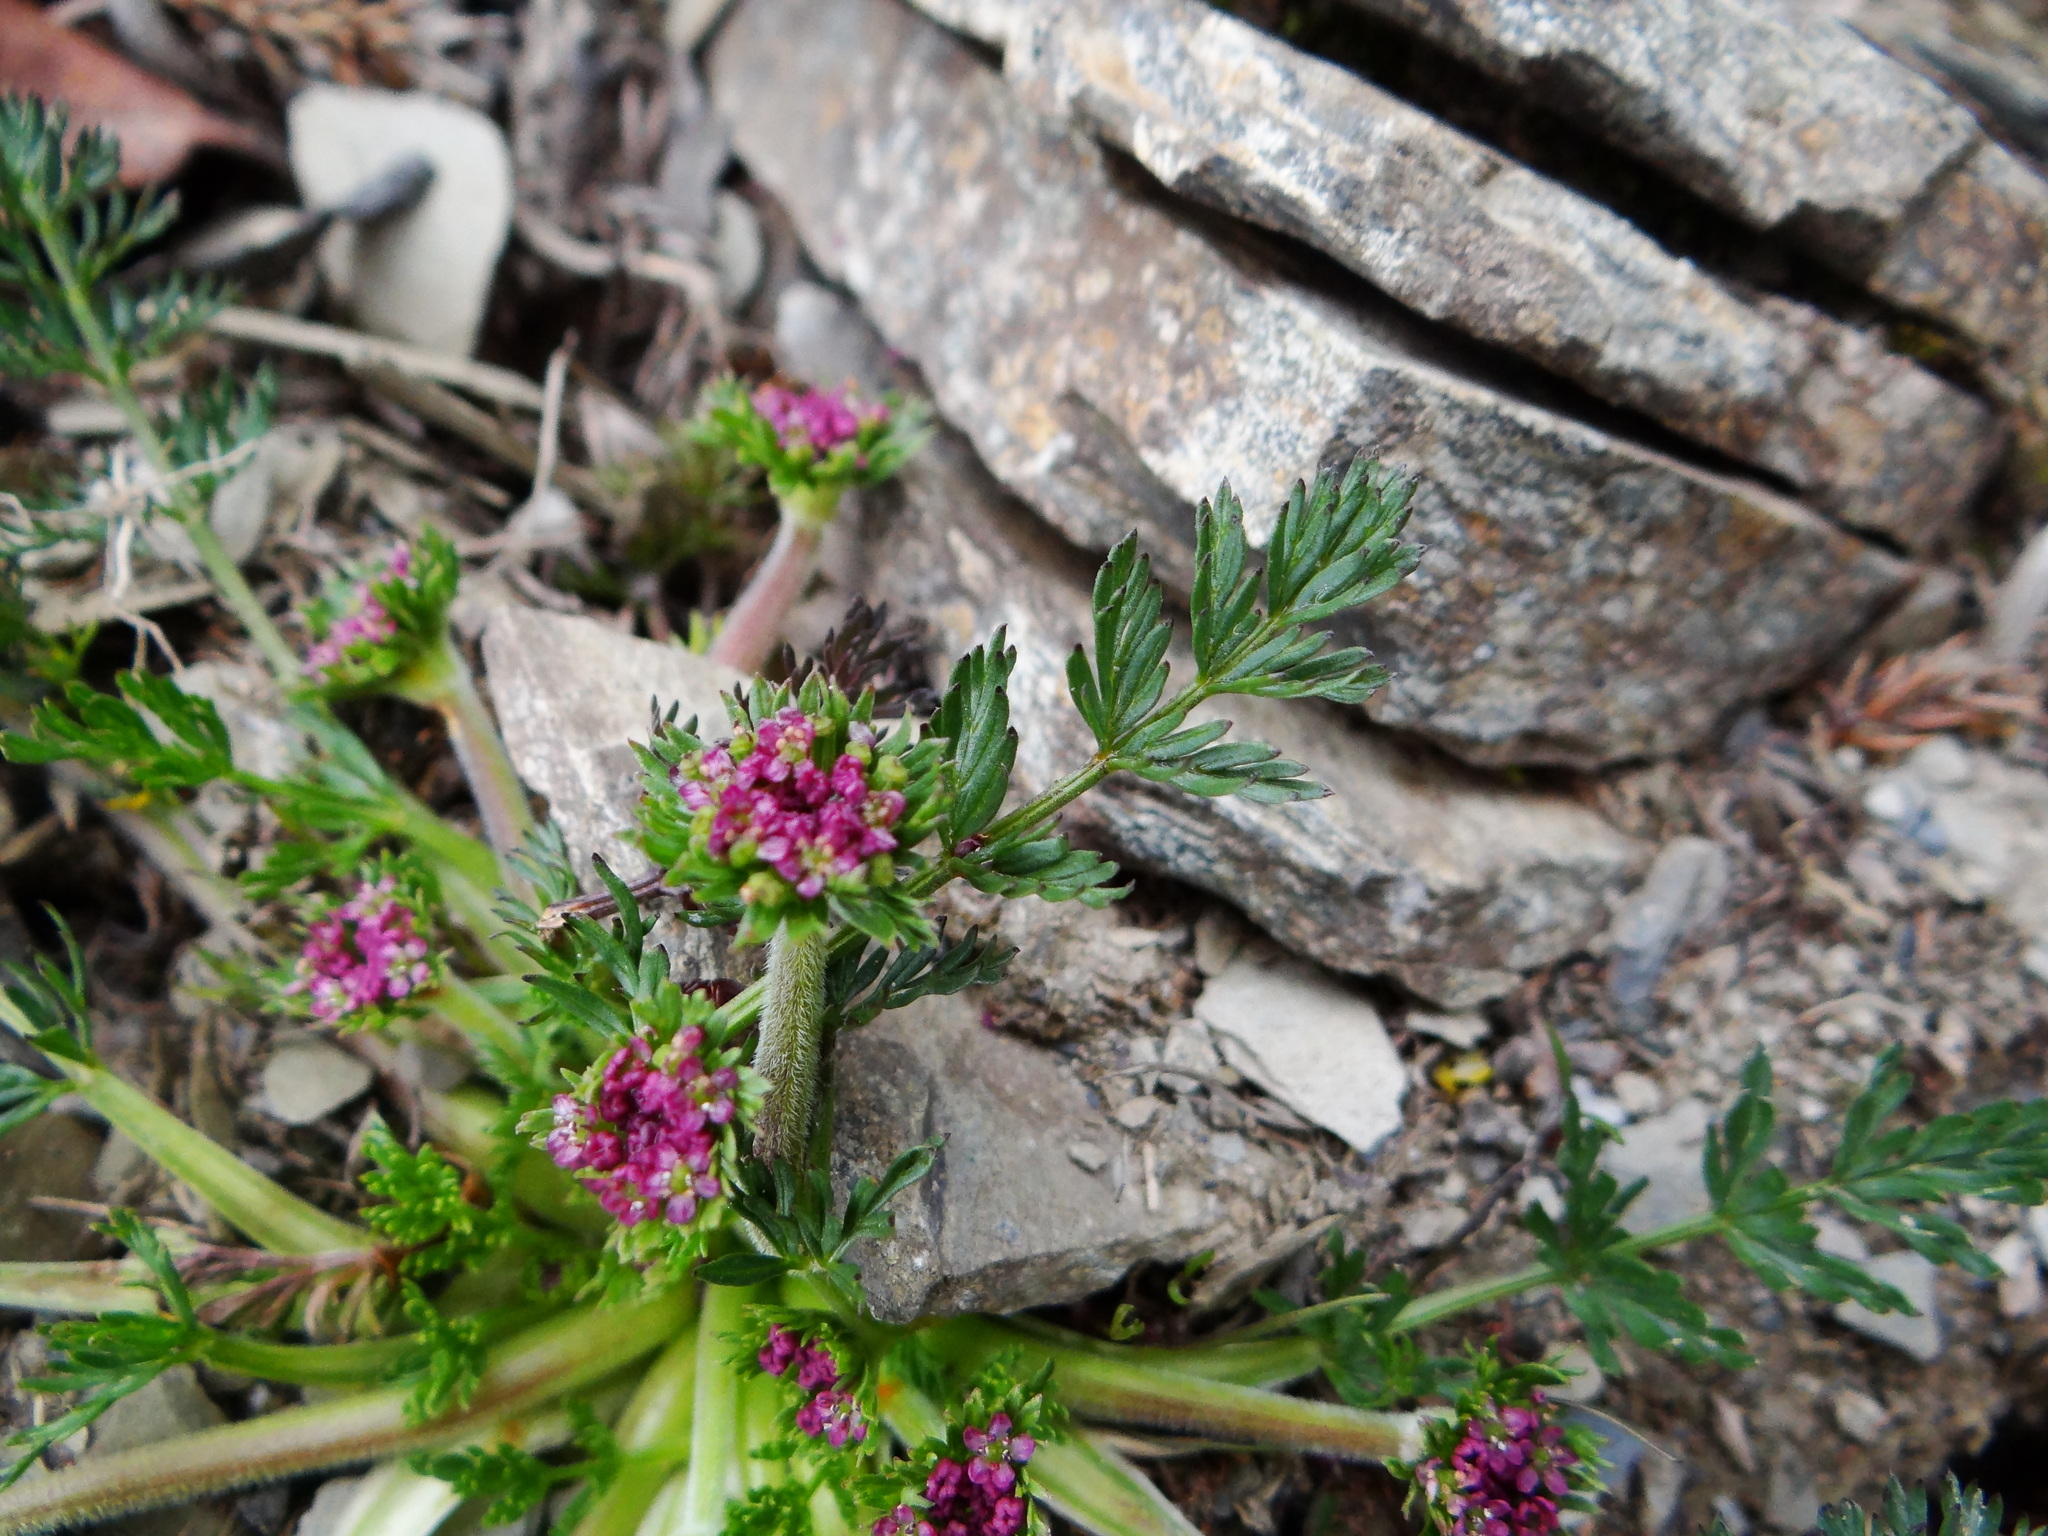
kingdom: Plantae
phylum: Tracheophyta
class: Magnoliopsida
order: Apiales
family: Apiaceae
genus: Chaerophyllum
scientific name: Chaerophyllum taiwanianum
